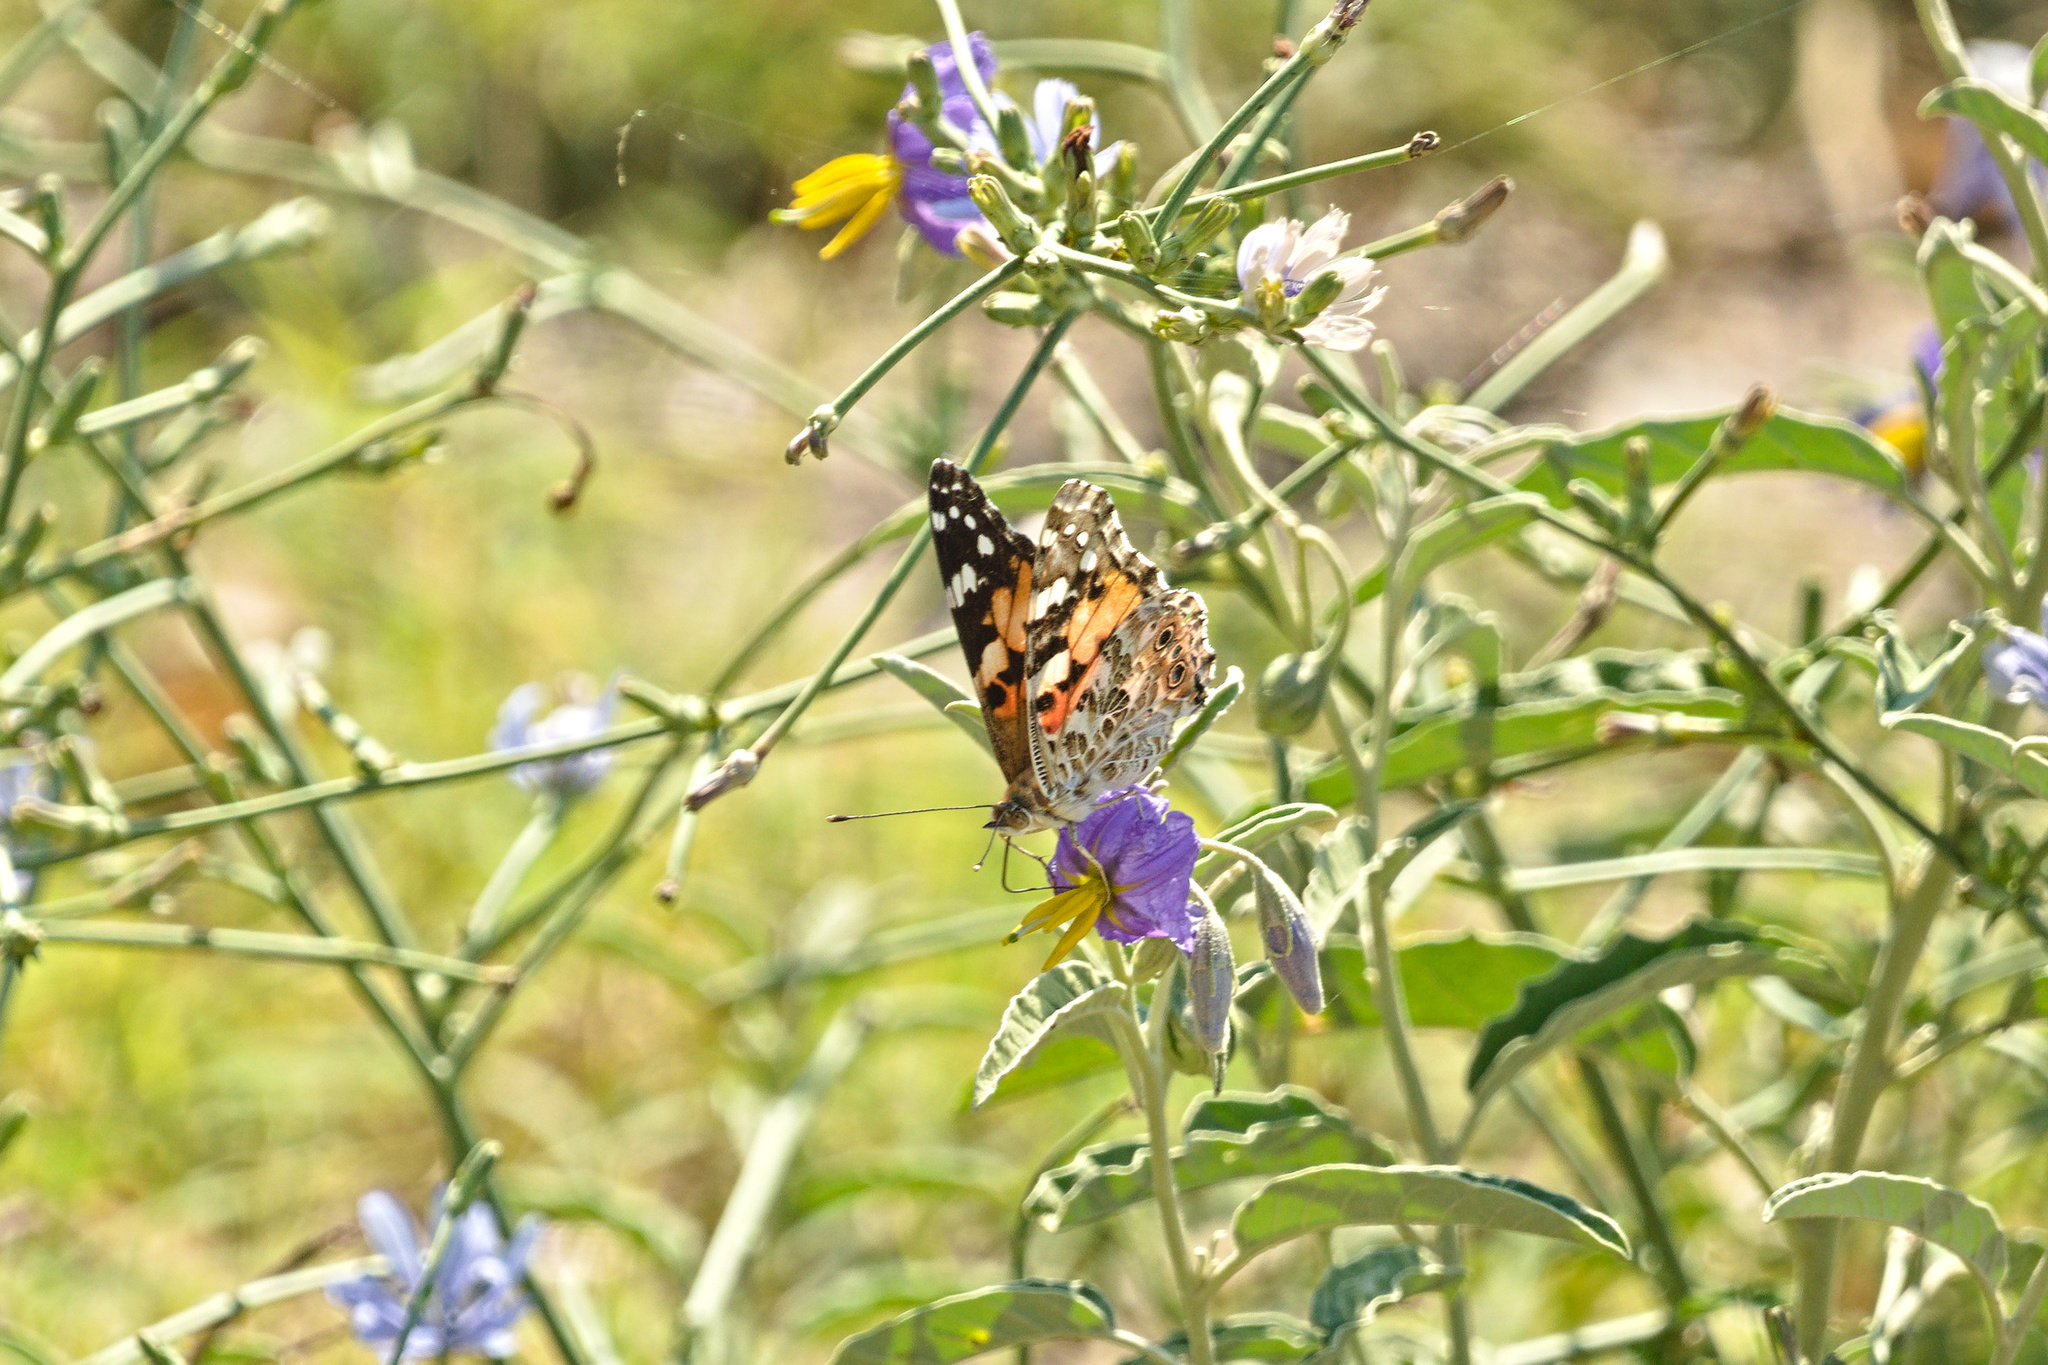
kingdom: Plantae
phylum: Tracheophyta
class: Magnoliopsida
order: Solanales
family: Solanaceae
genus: Solanum
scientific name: Solanum elaeagnifolium
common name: Silverleaf nightshade
